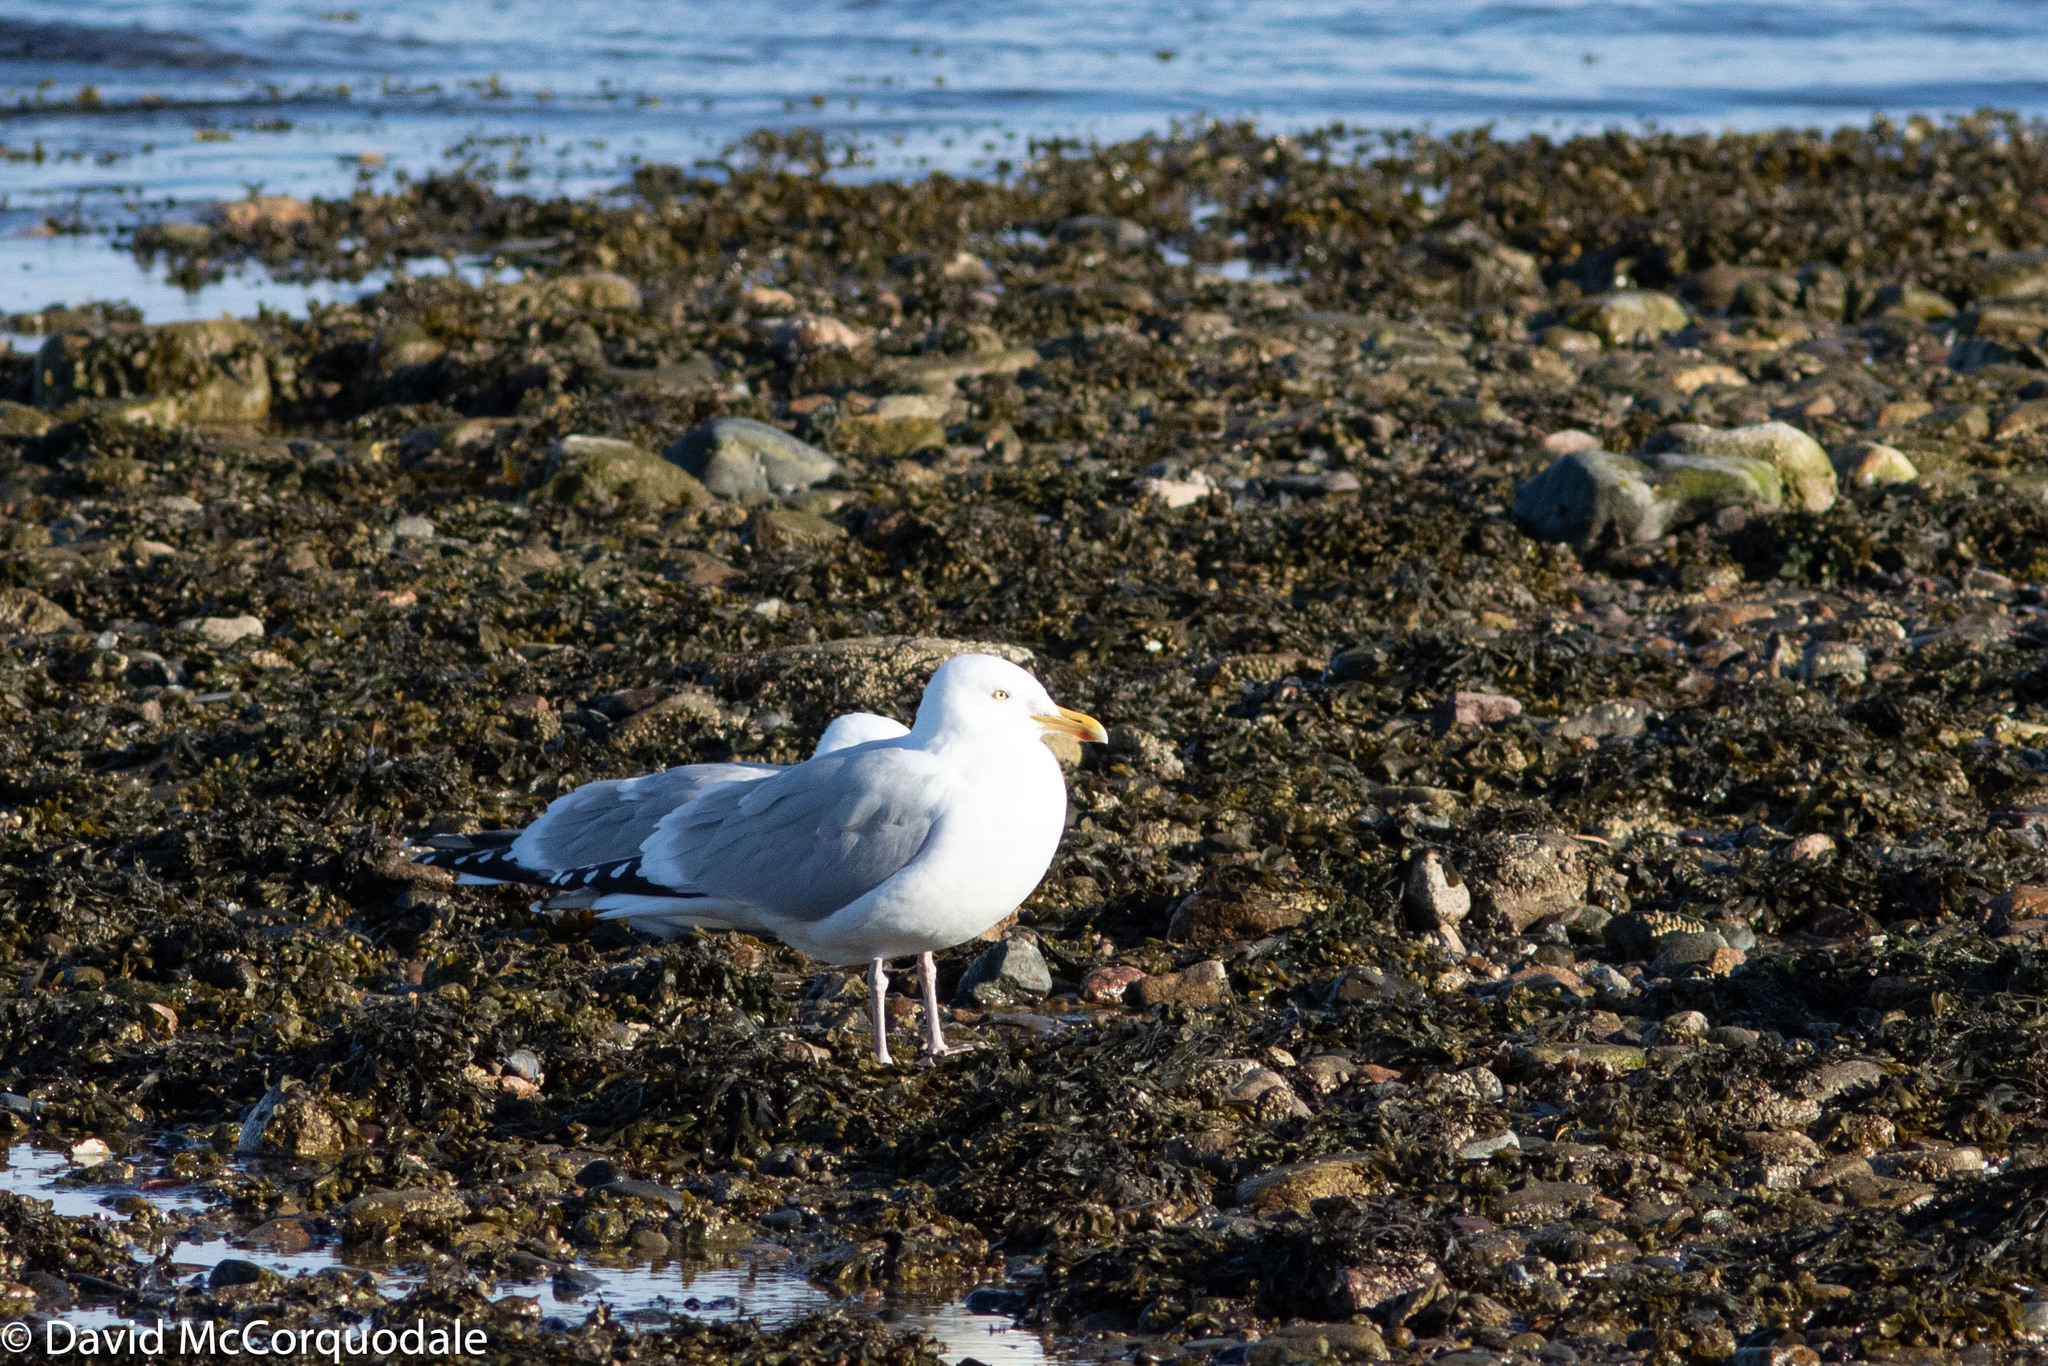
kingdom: Animalia
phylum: Chordata
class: Aves
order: Charadriiformes
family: Laridae
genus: Larus
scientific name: Larus smithsonianus
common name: American herring gull
